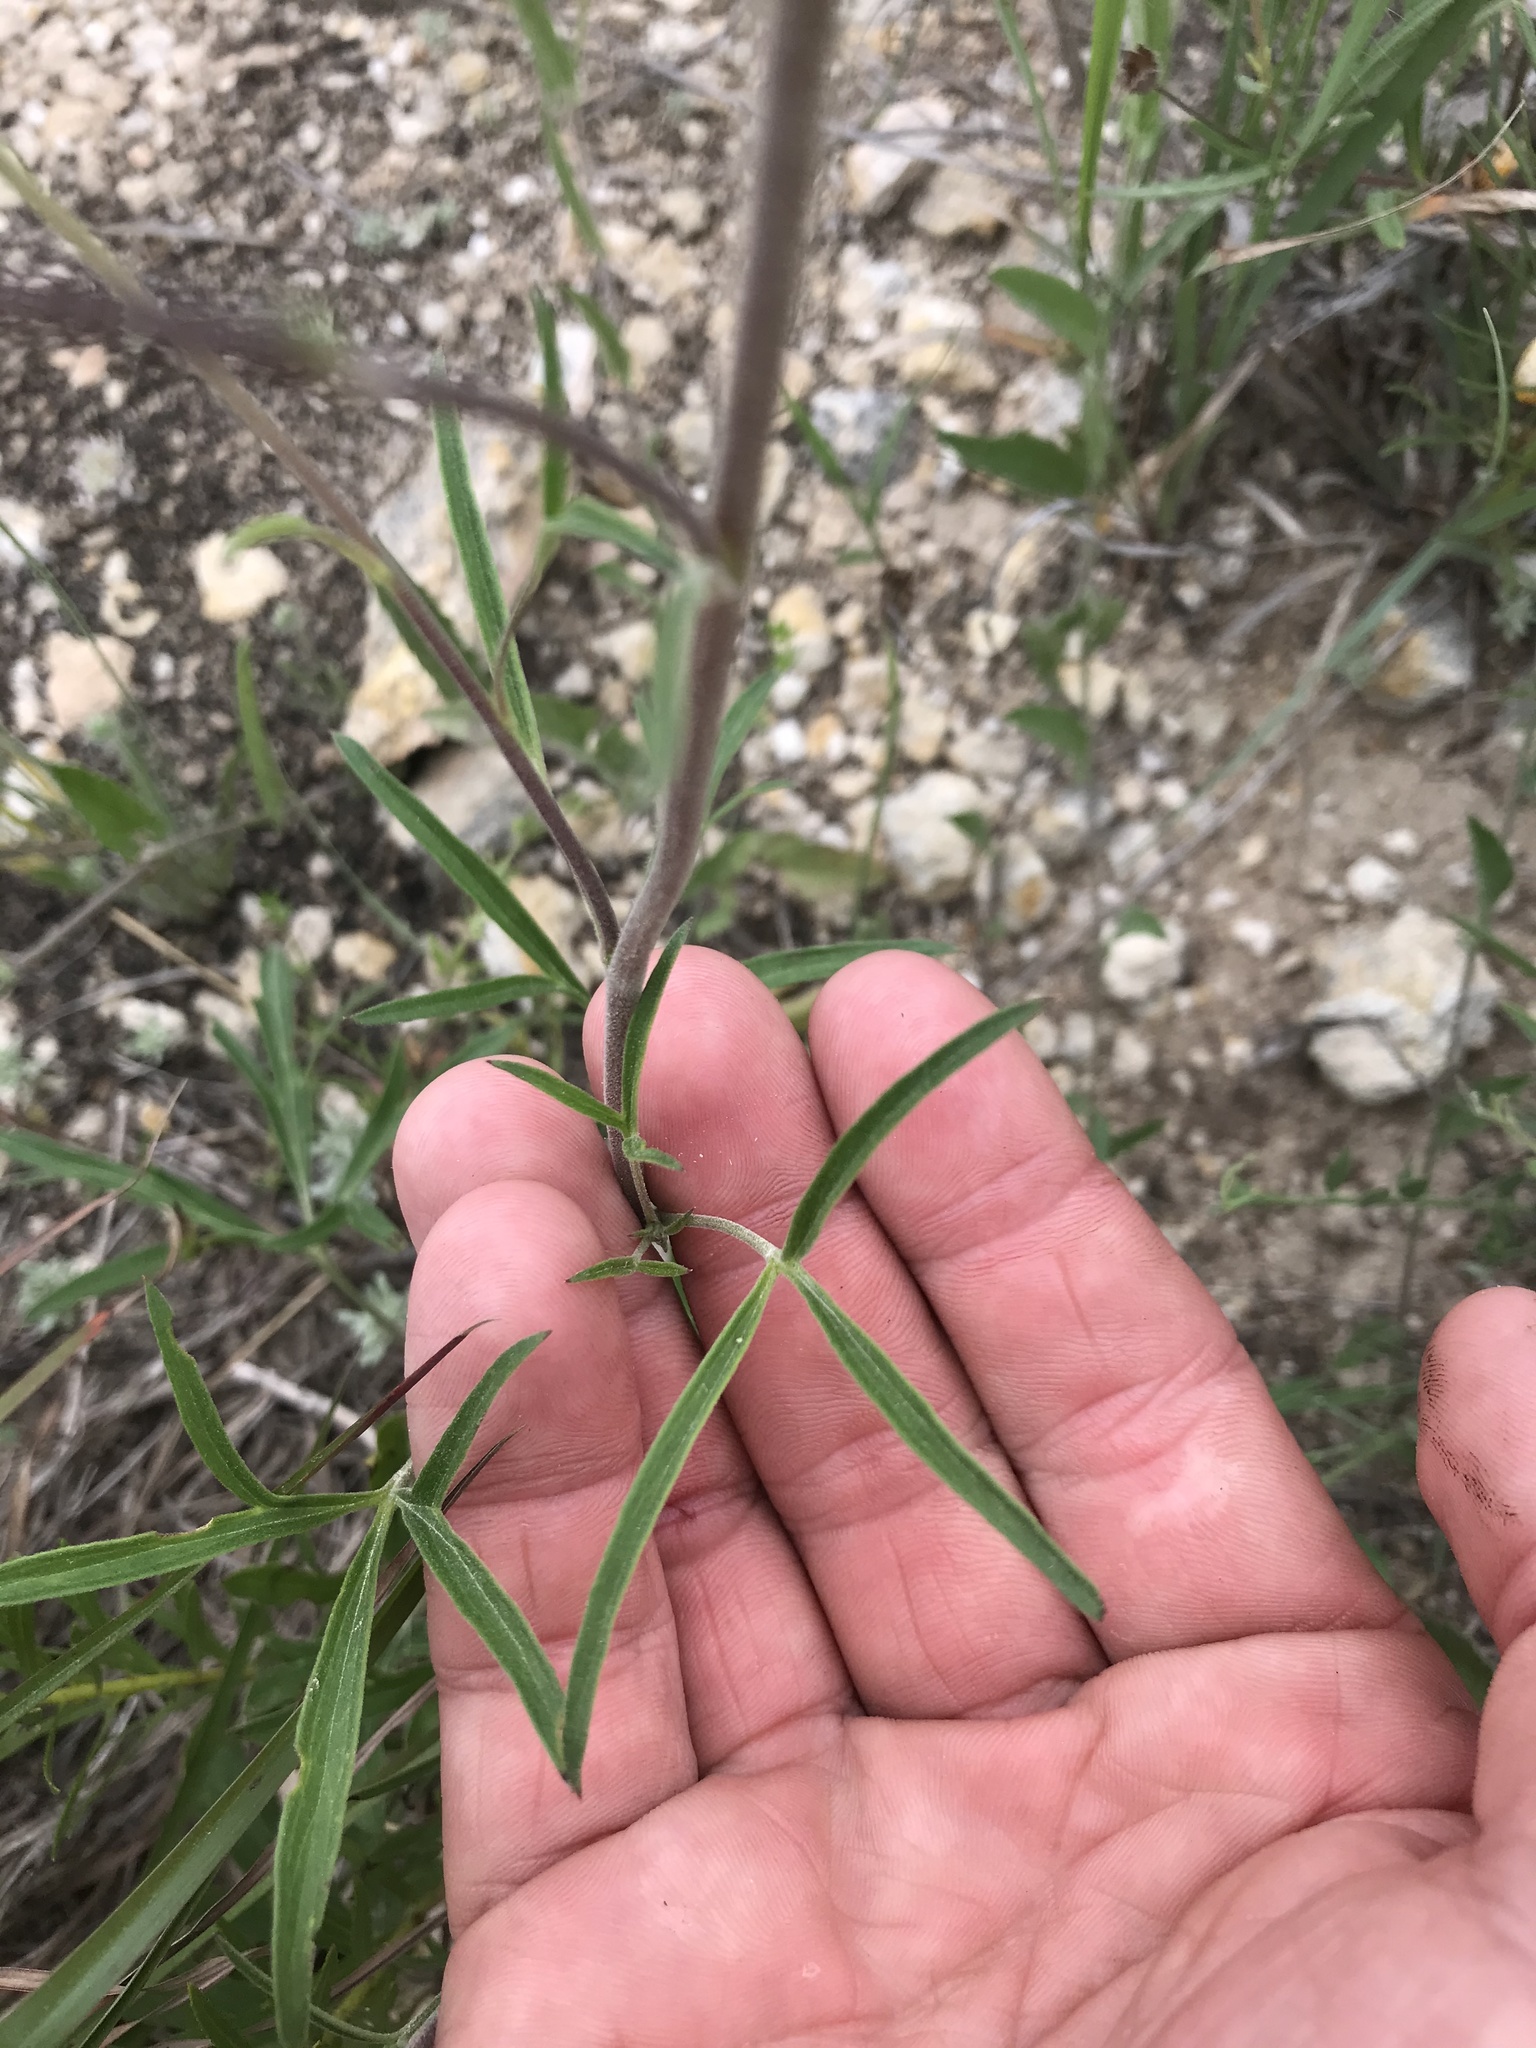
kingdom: Plantae
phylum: Tracheophyta
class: Magnoliopsida
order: Ranunculales
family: Ranunculaceae
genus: Delphinium
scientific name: Delphinium carolinianum
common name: Carolina larkspur
